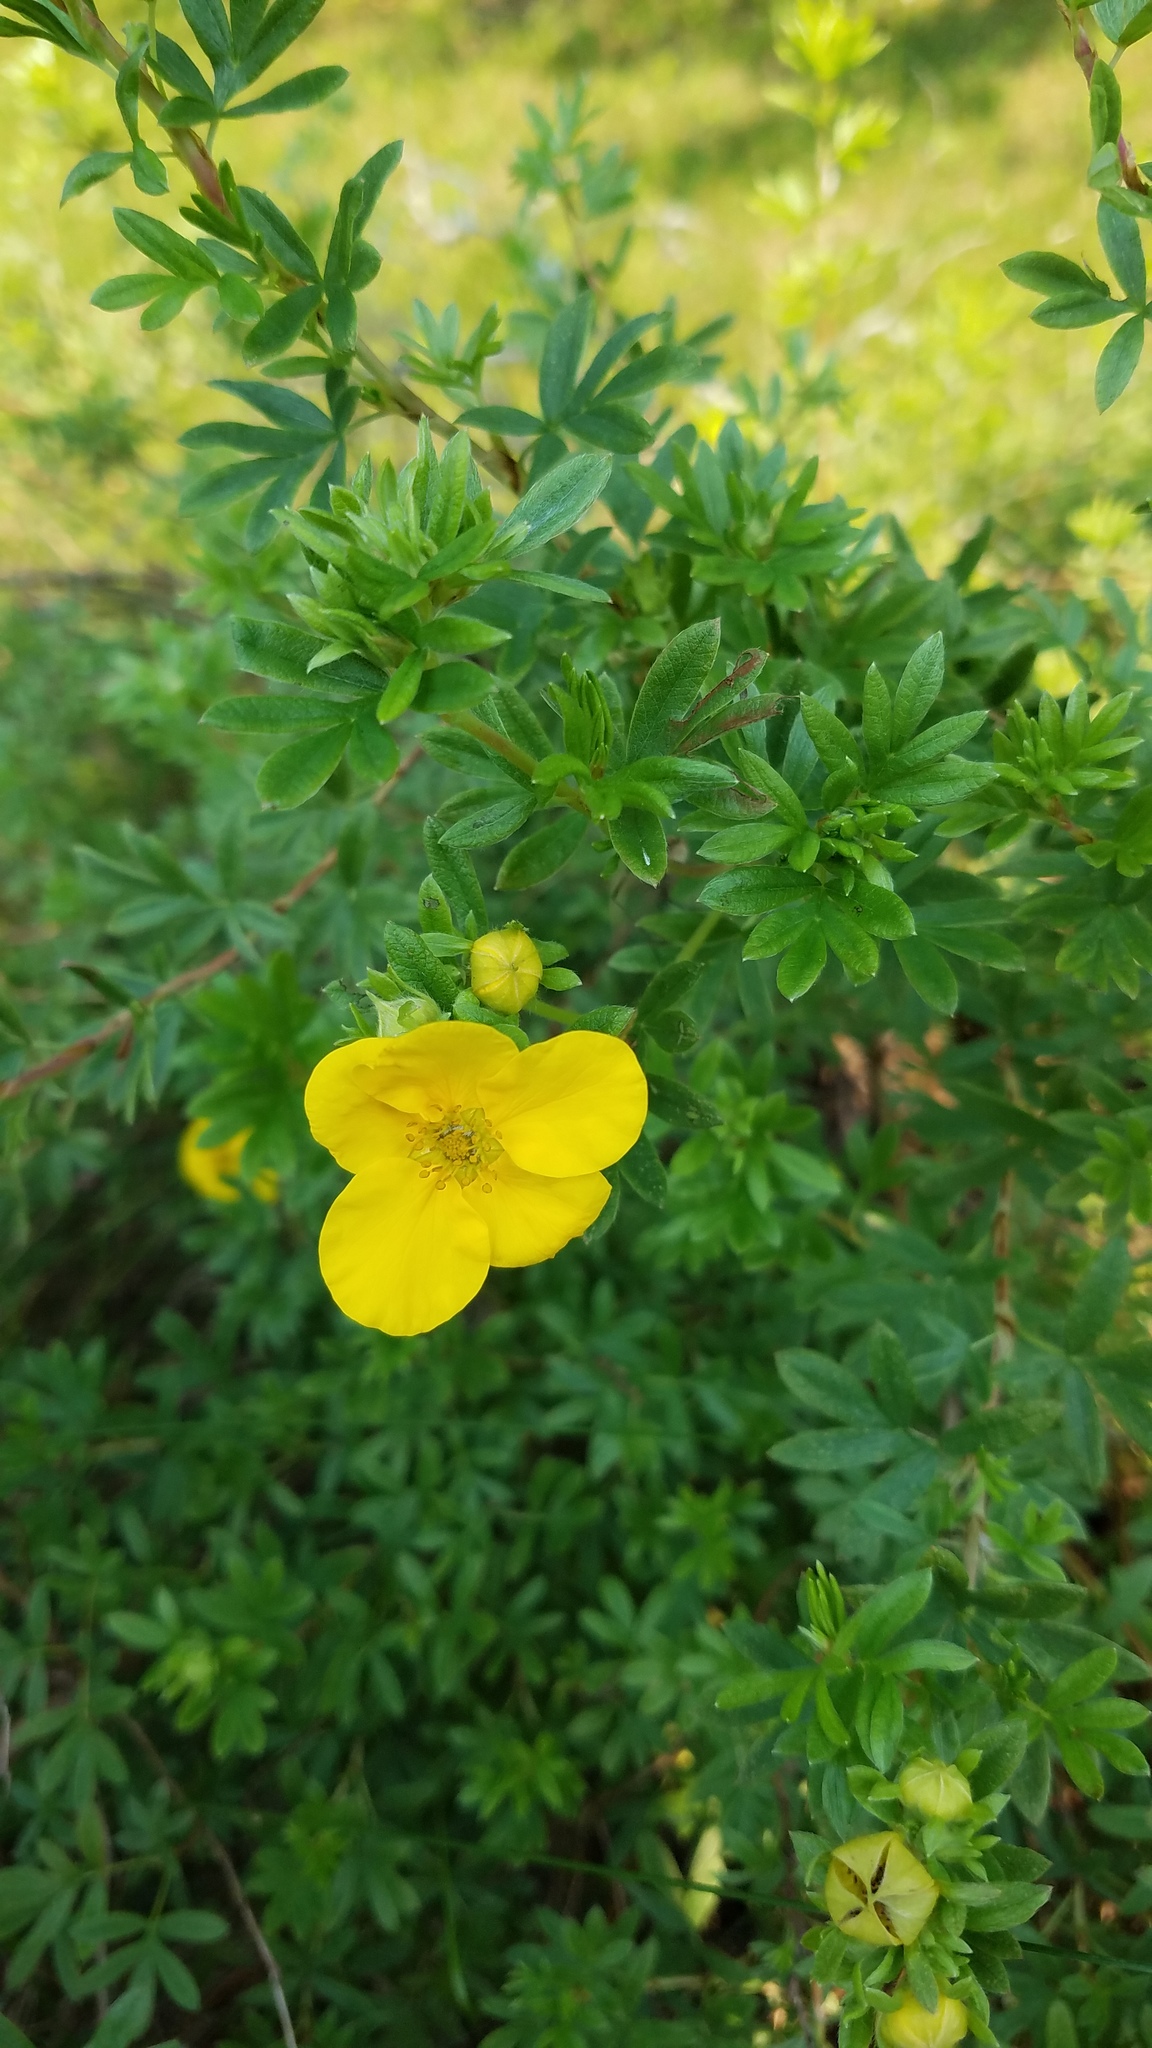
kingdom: Plantae
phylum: Tracheophyta
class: Magnoliopsida
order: Rosales
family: Rosaceae
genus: Dasiphora
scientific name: Dasiphora fruticosa
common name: Shrubby cinquefoil
